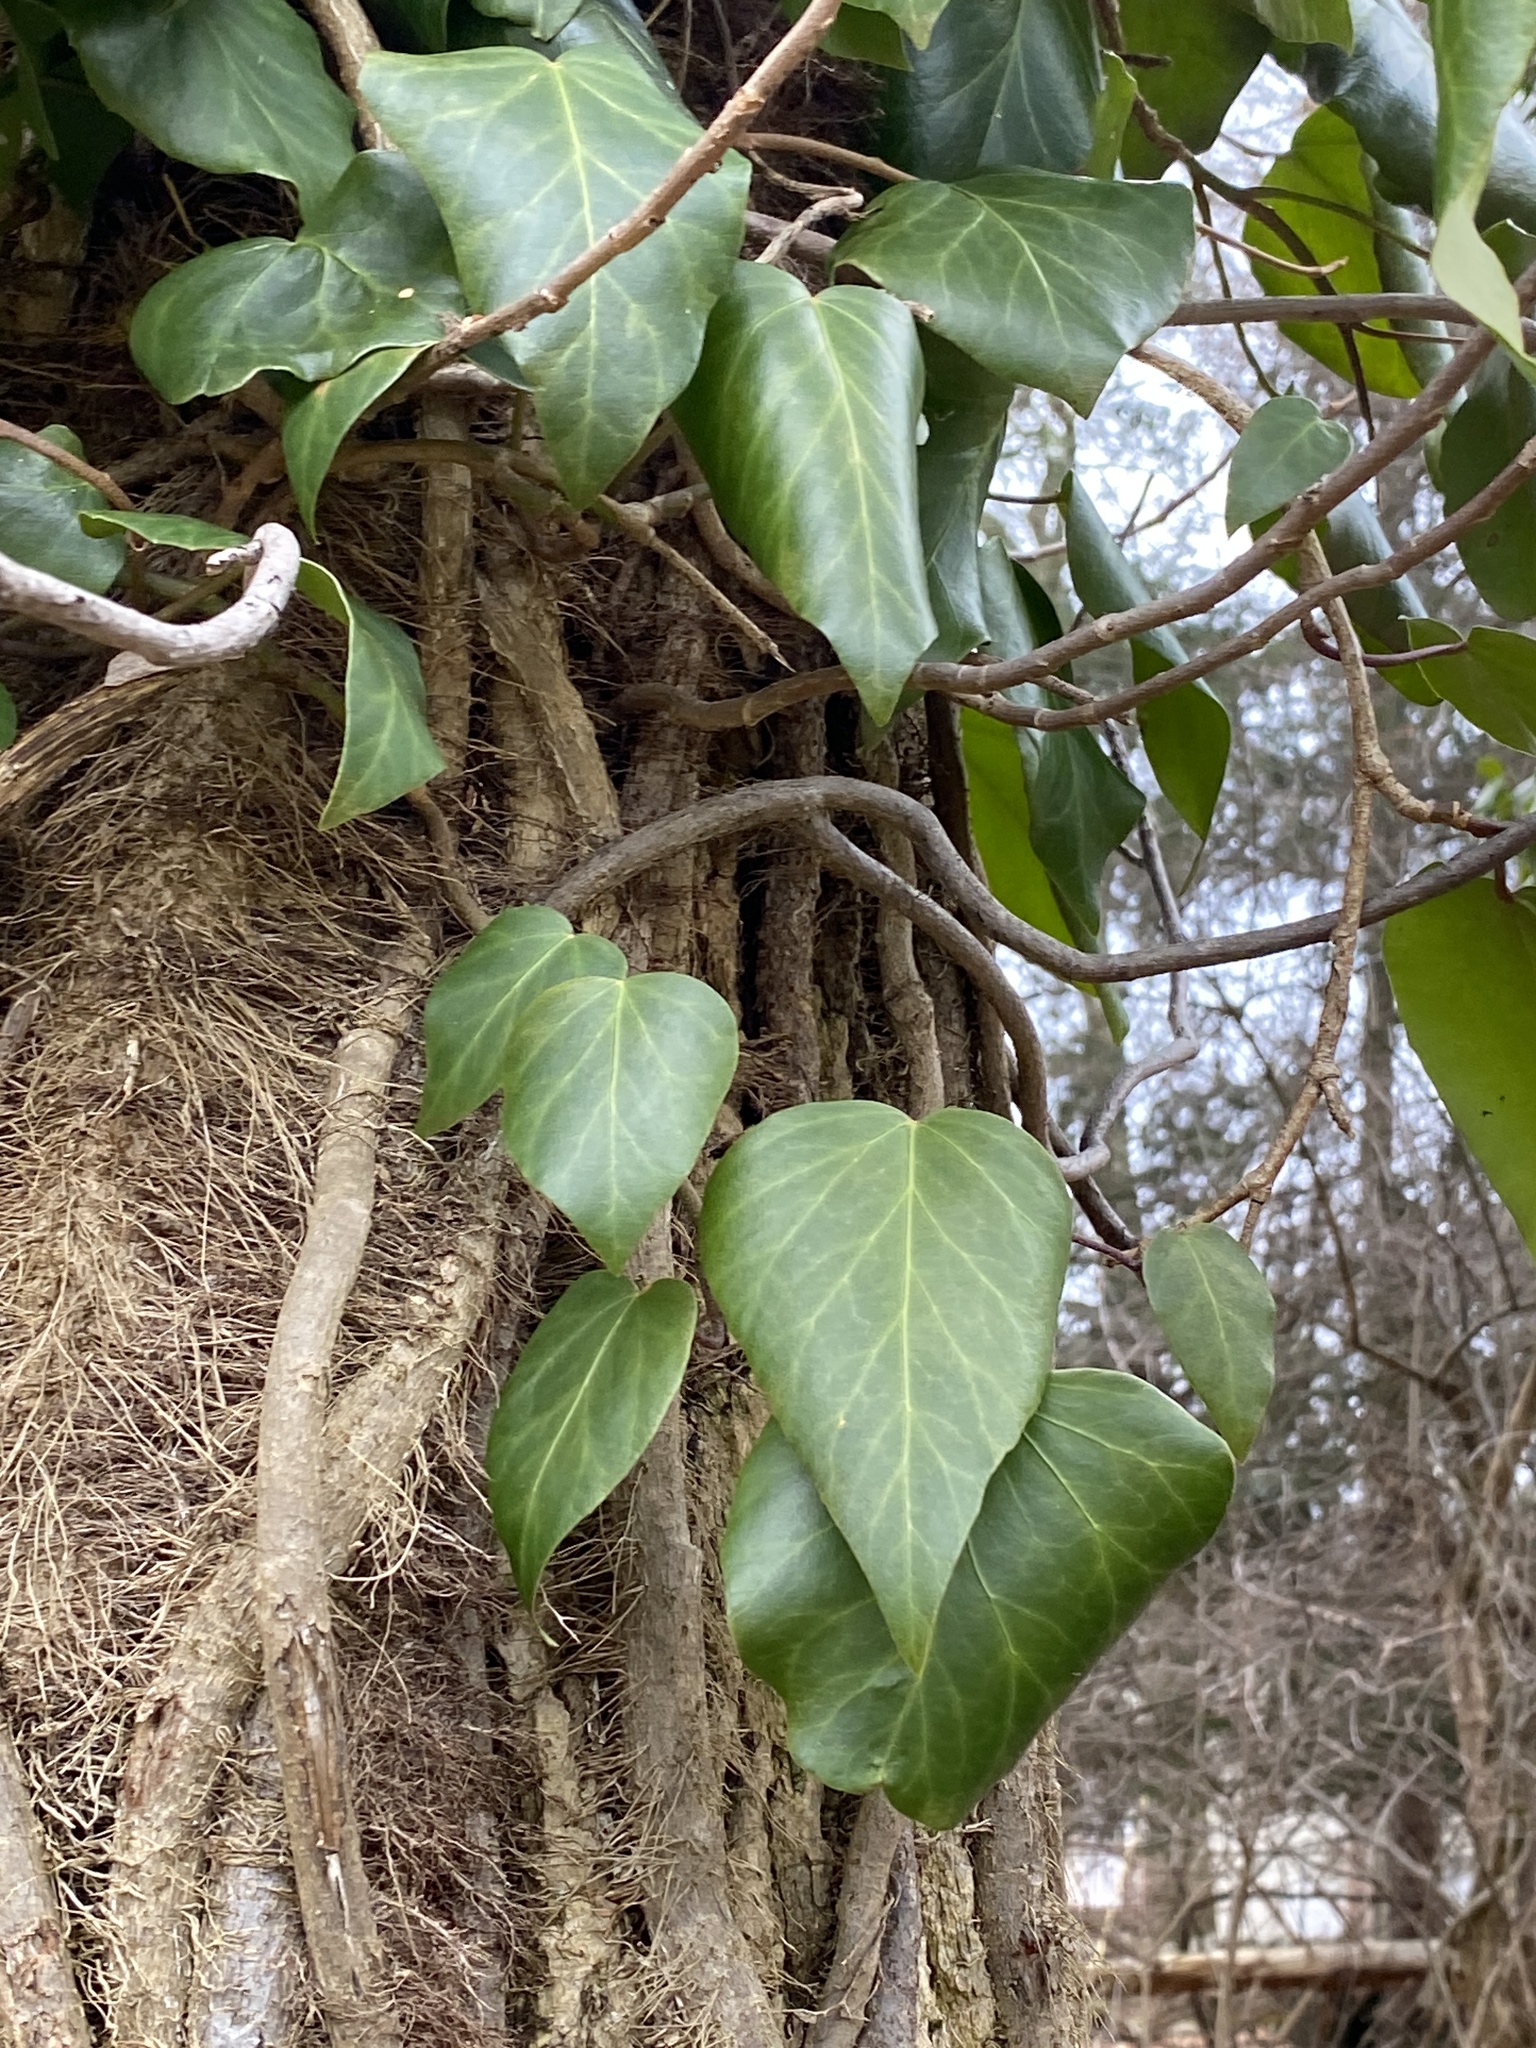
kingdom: Plantae
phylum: Tracheophyta
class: Magnoliopsida
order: Apiales
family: Araliaceae
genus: Hedera
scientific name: Hedera
